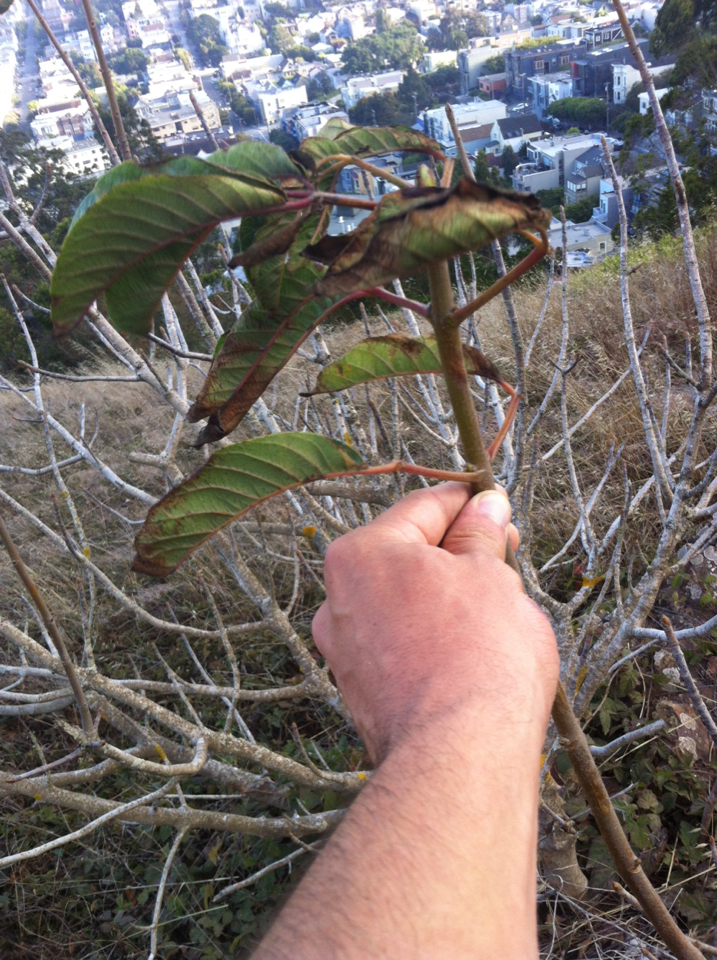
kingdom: Plantae
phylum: Tracheophyta
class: Magnoliopsida
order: Sapindales
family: Sapindaceae
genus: Aesculus
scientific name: Aesculus californica
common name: California buckeye
